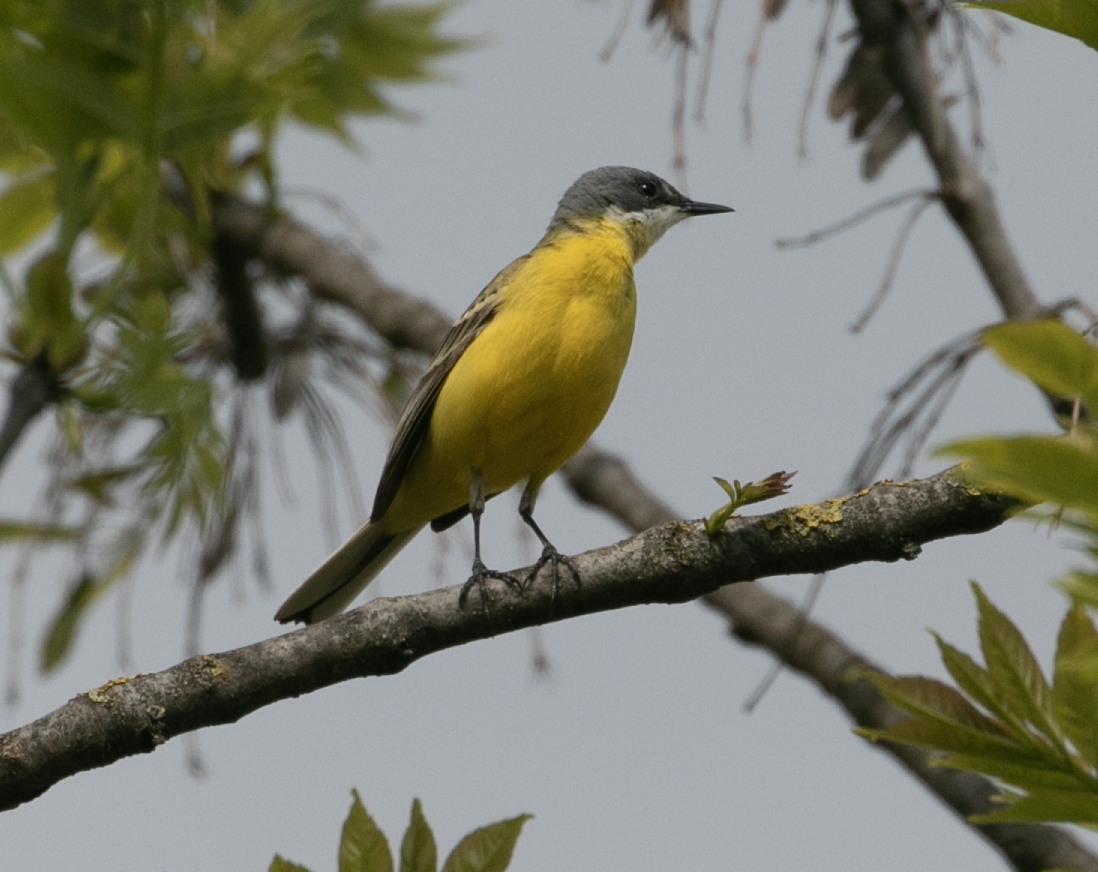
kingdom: Animalia
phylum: Chordata
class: Aves
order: Passeriformes
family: Motacillidae
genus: Motacilla
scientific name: Motacilla flava
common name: Western yellow wagtail
